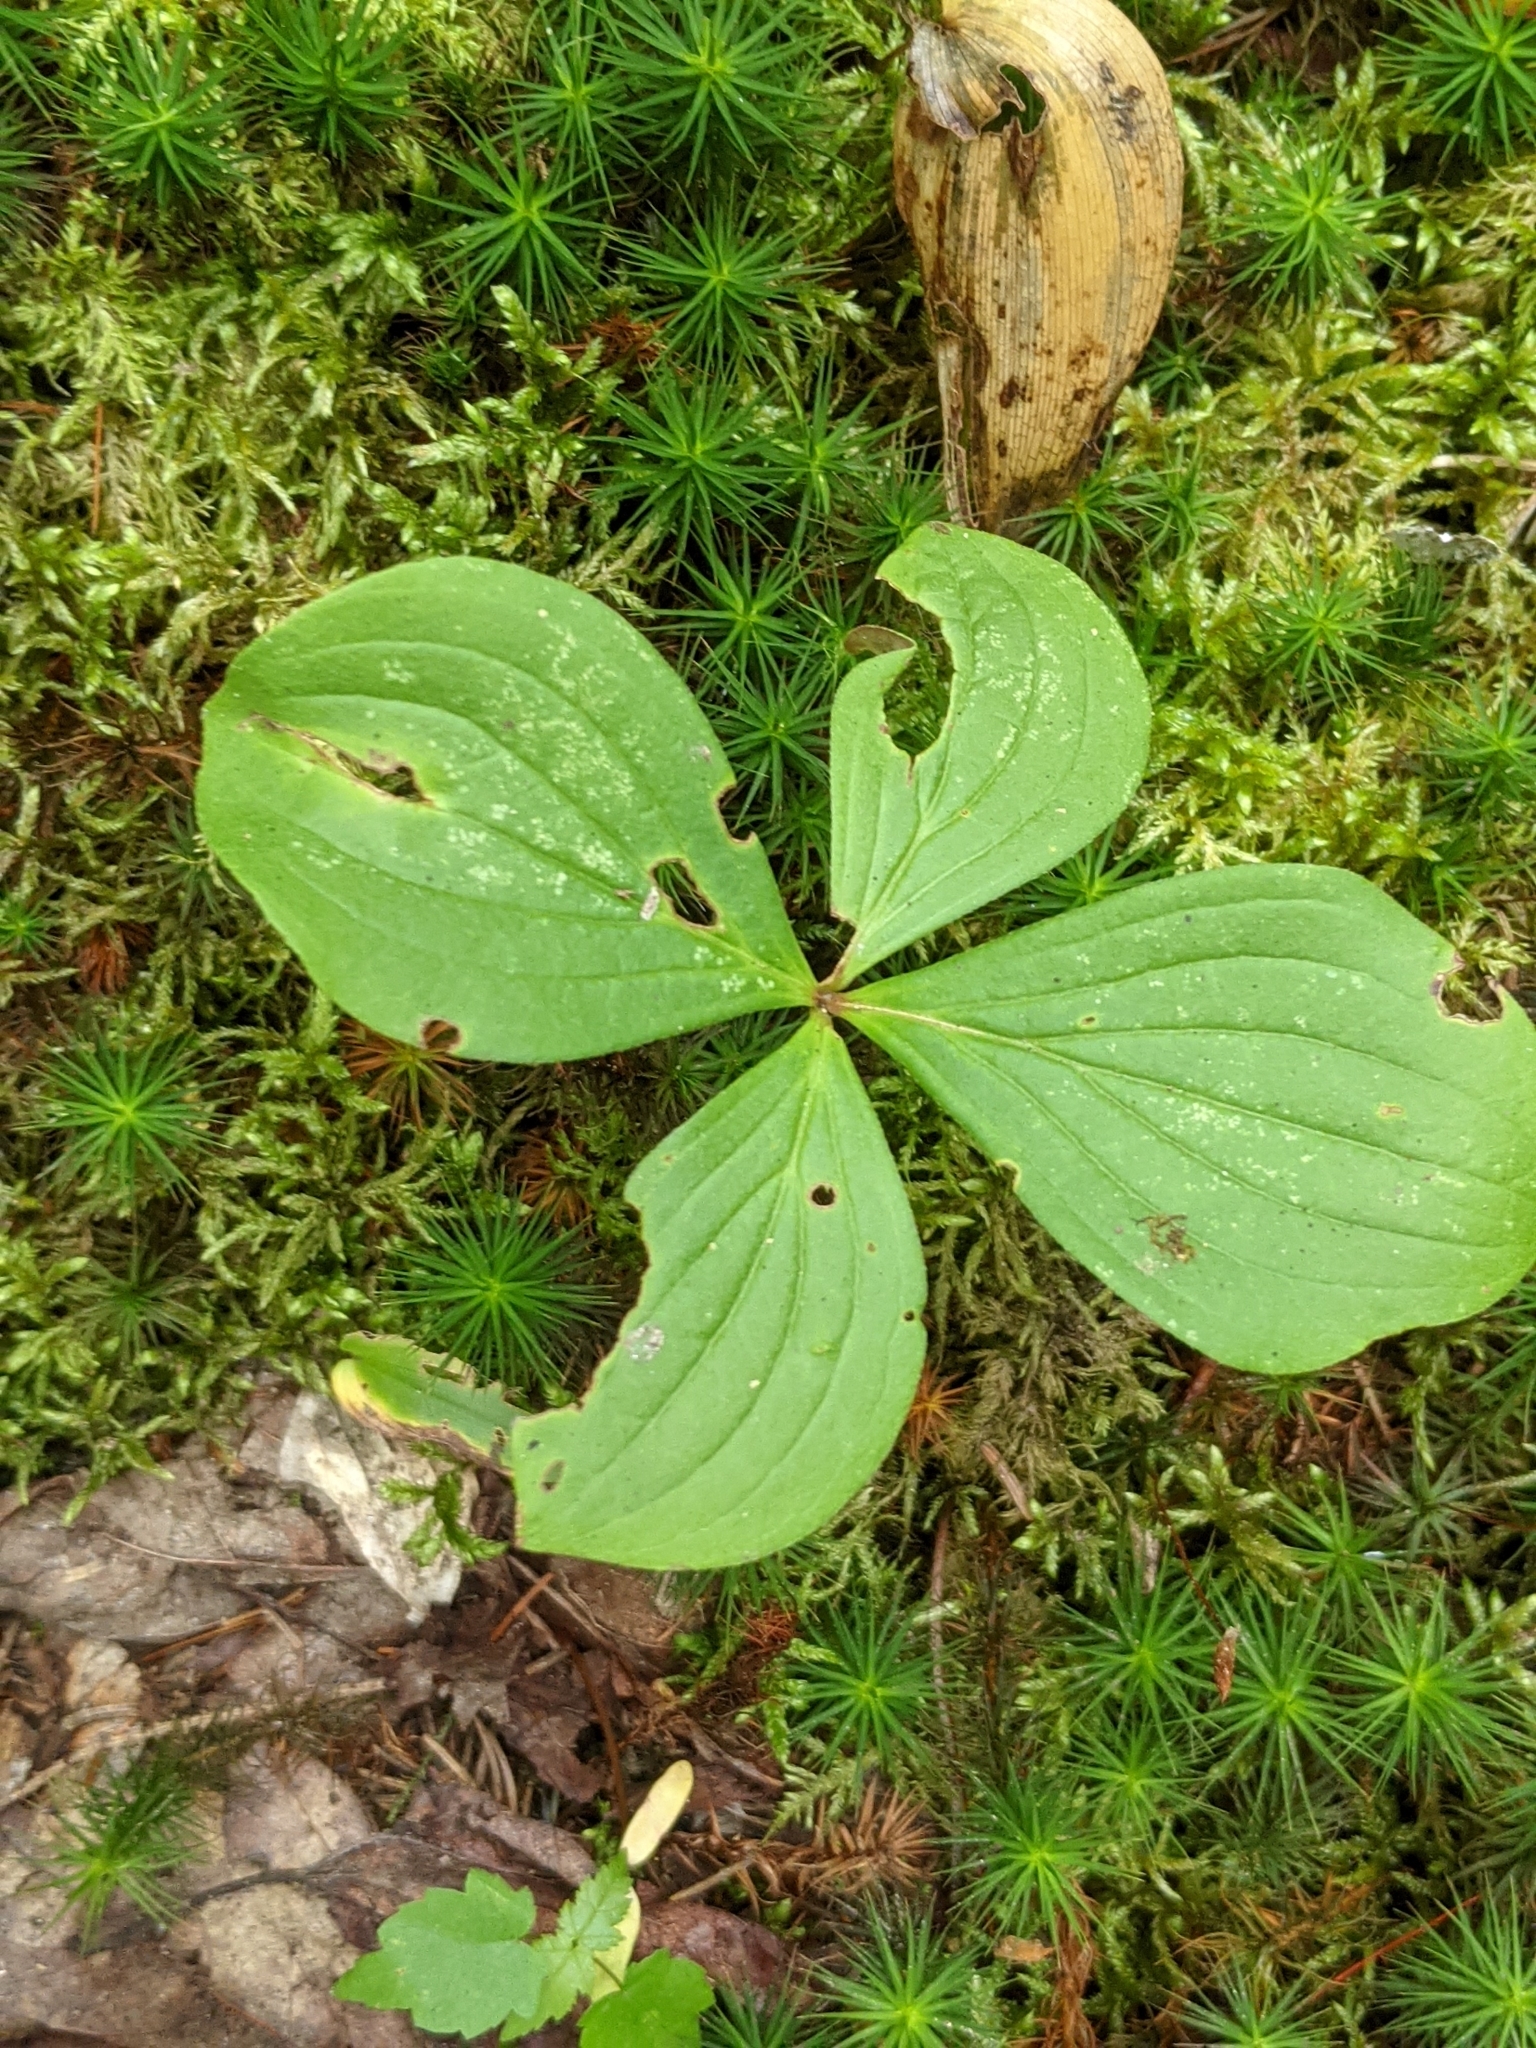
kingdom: Plantae
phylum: Tracheophyta
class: Magnoliopsida
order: Cornales
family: Cornaceae
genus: Cornus
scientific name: Cornus canadensis
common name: Creeping dogwood
